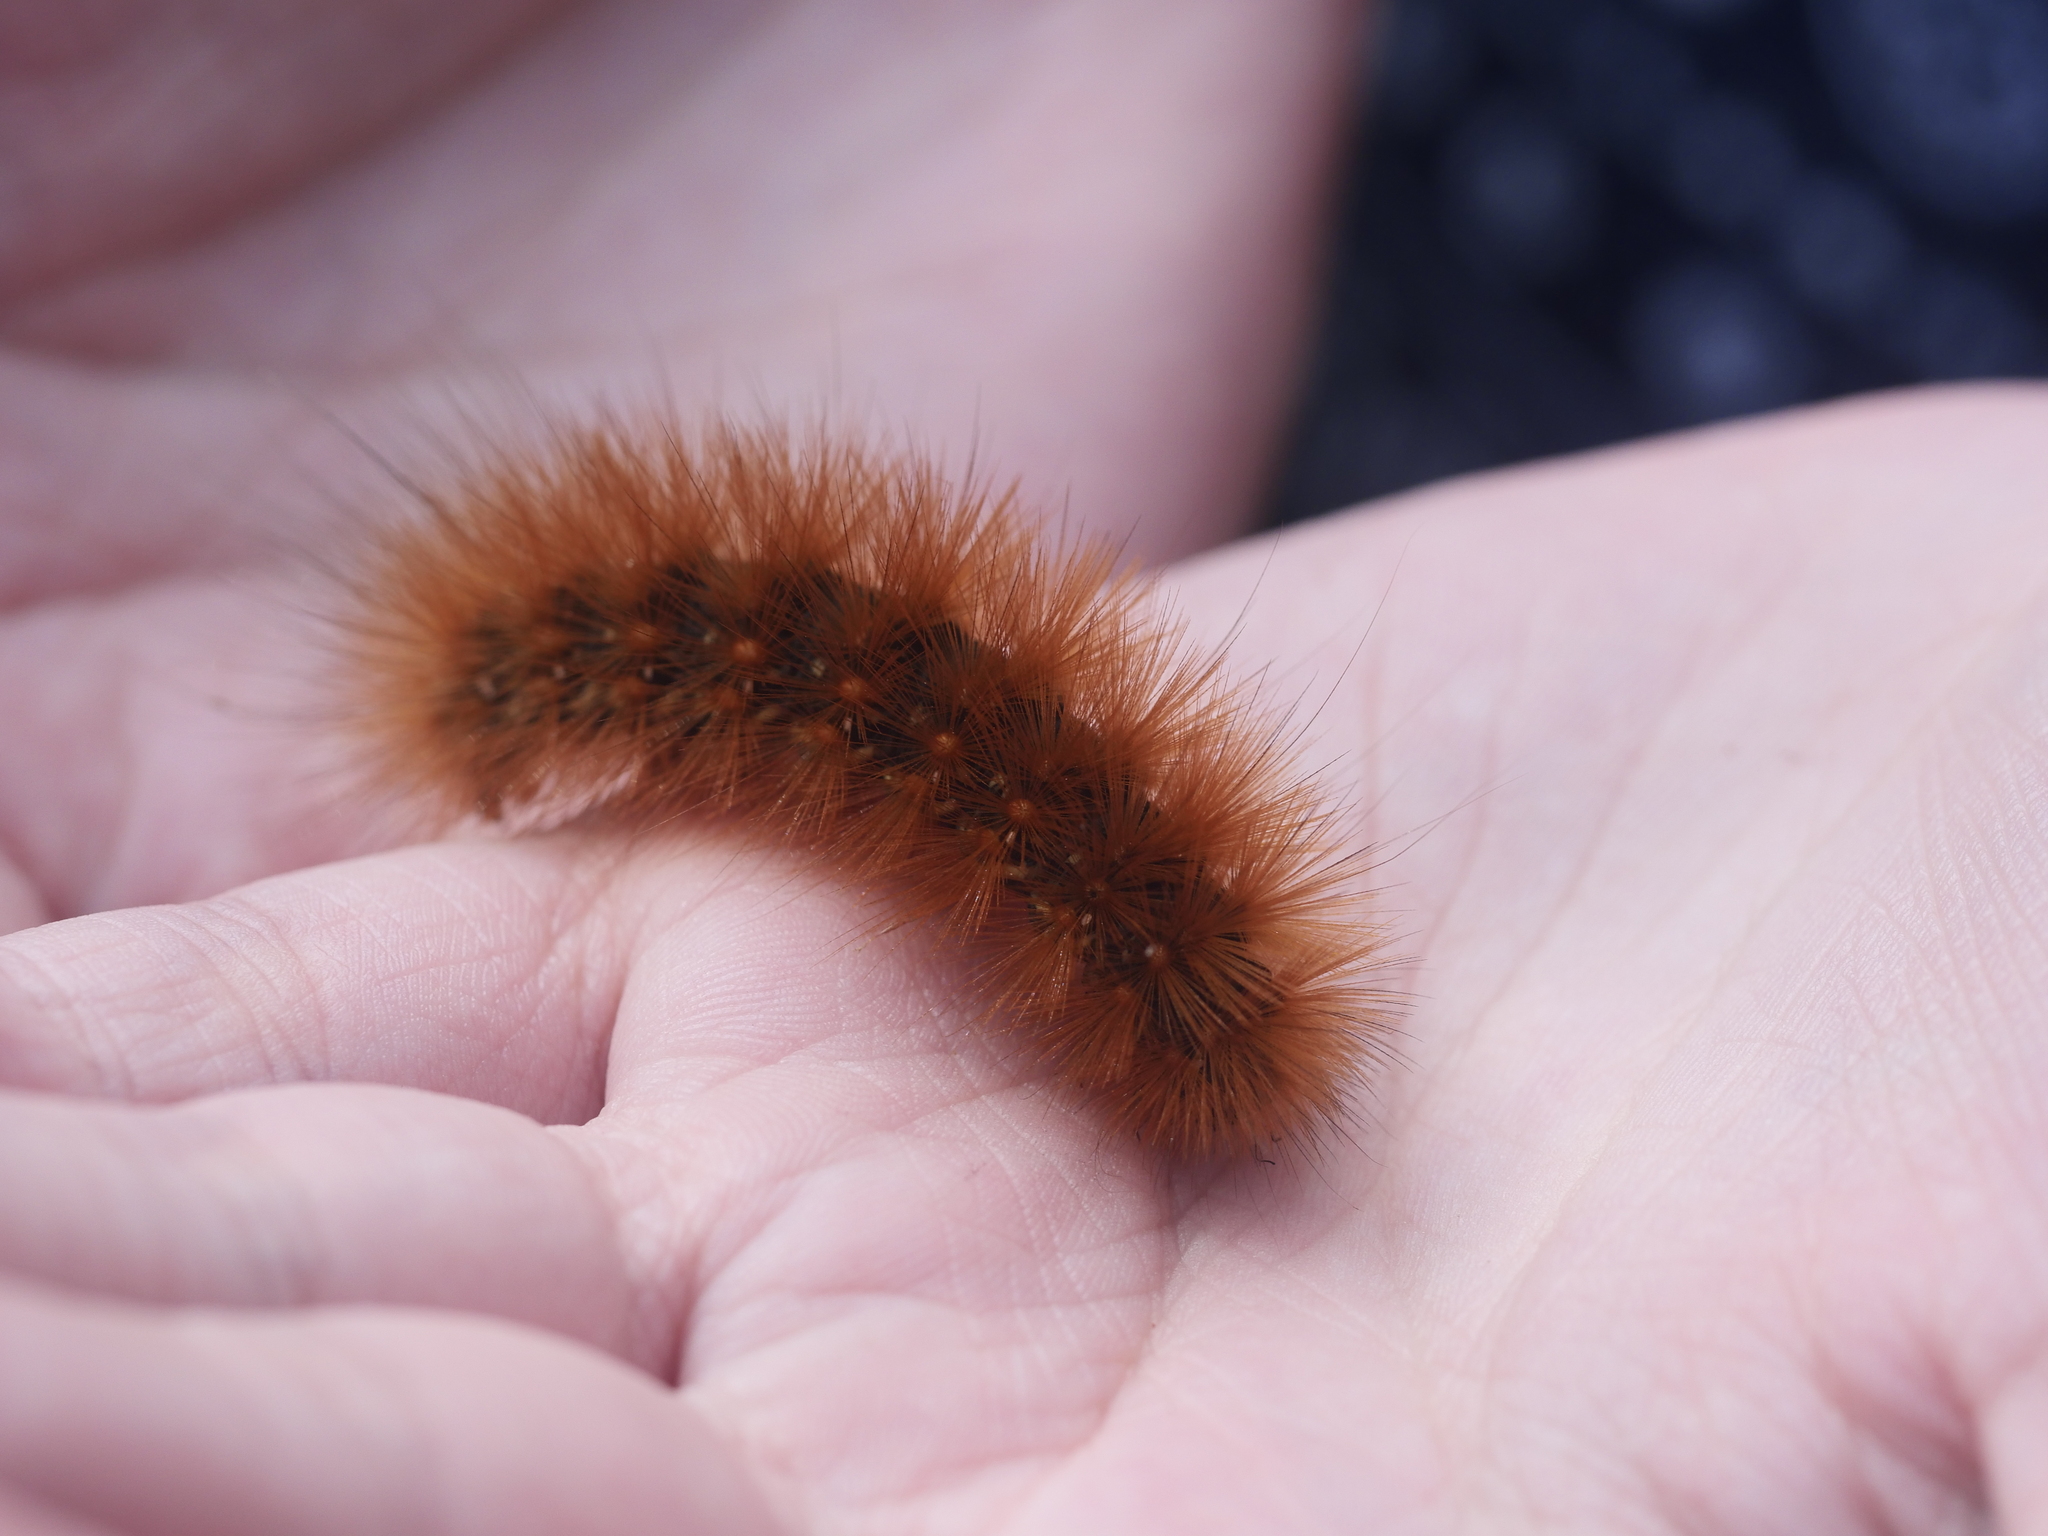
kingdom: Animalia
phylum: Arthropoda
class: Insecta
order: Lepidoptera
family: Erebidae
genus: Spilosoma
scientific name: Spilosoma virginica
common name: Virginia tiger moth
